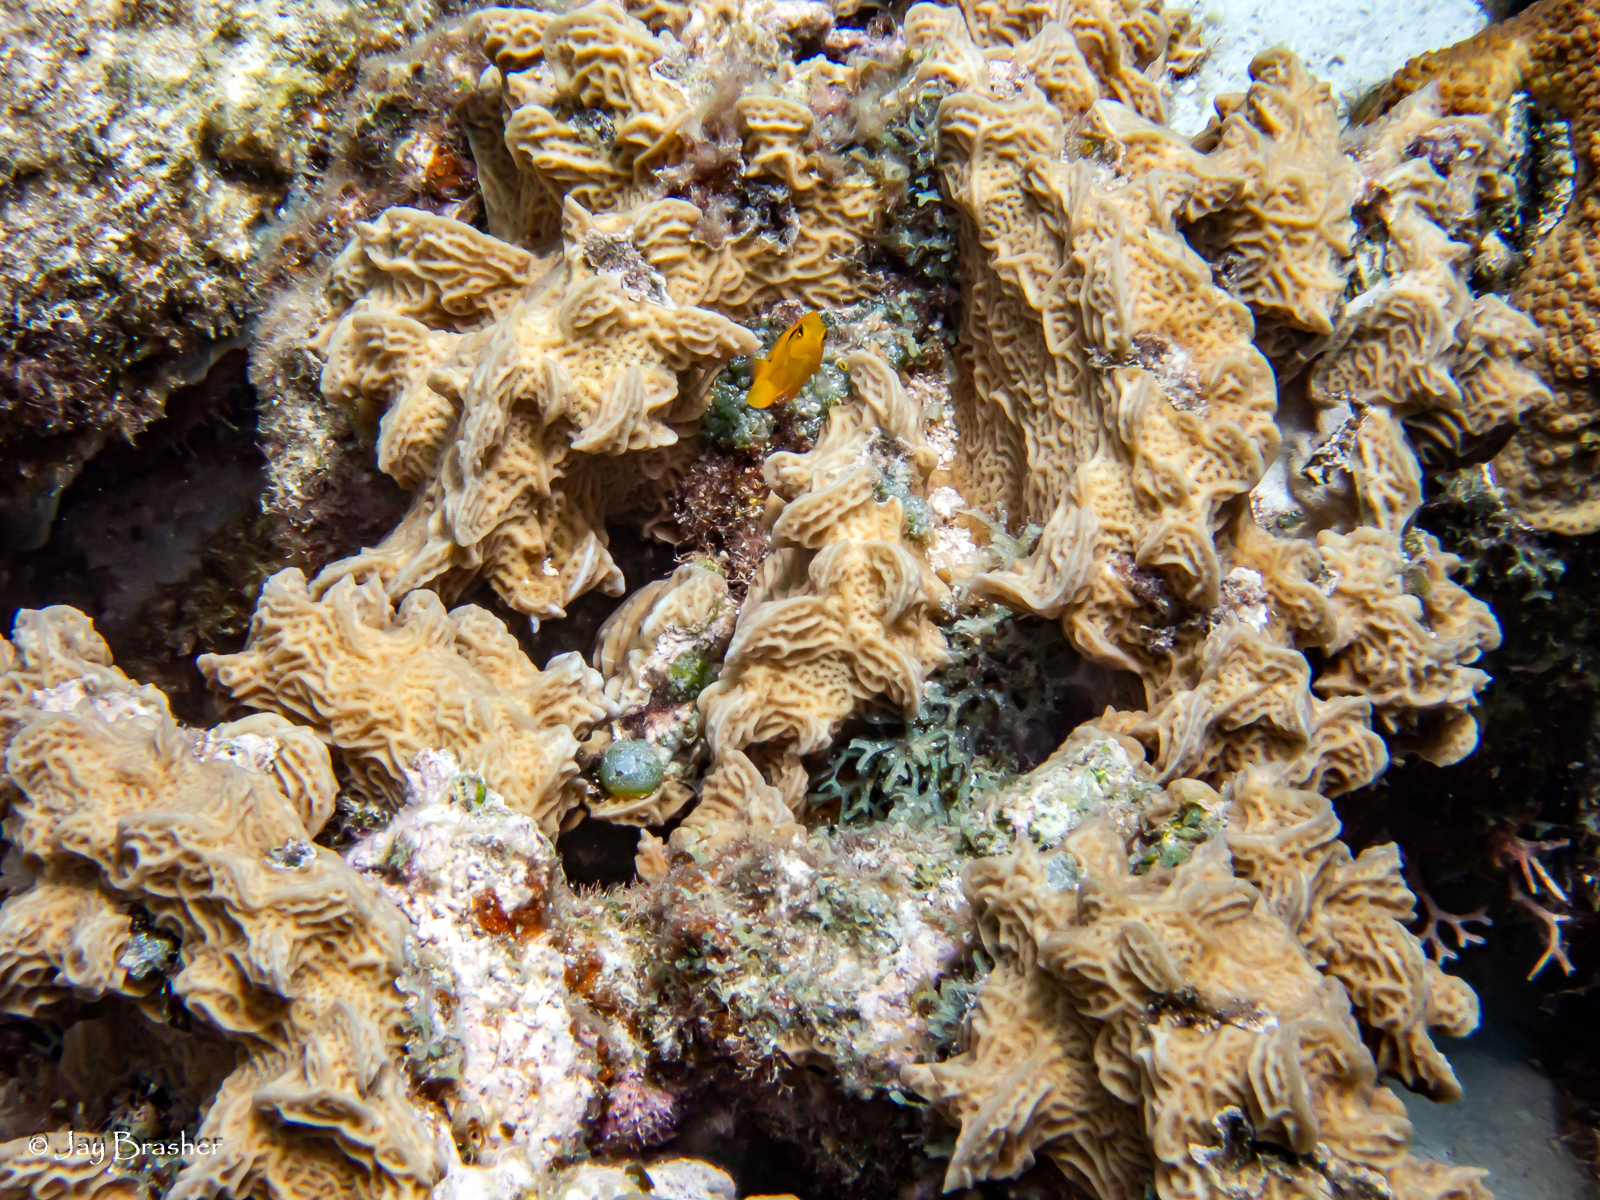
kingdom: Animalia
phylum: Cnidaria
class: Anthozoa
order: Scleractinia
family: Agariciidae
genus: Agaricia
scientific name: Agaricia agaricites
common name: Lettuce coral
